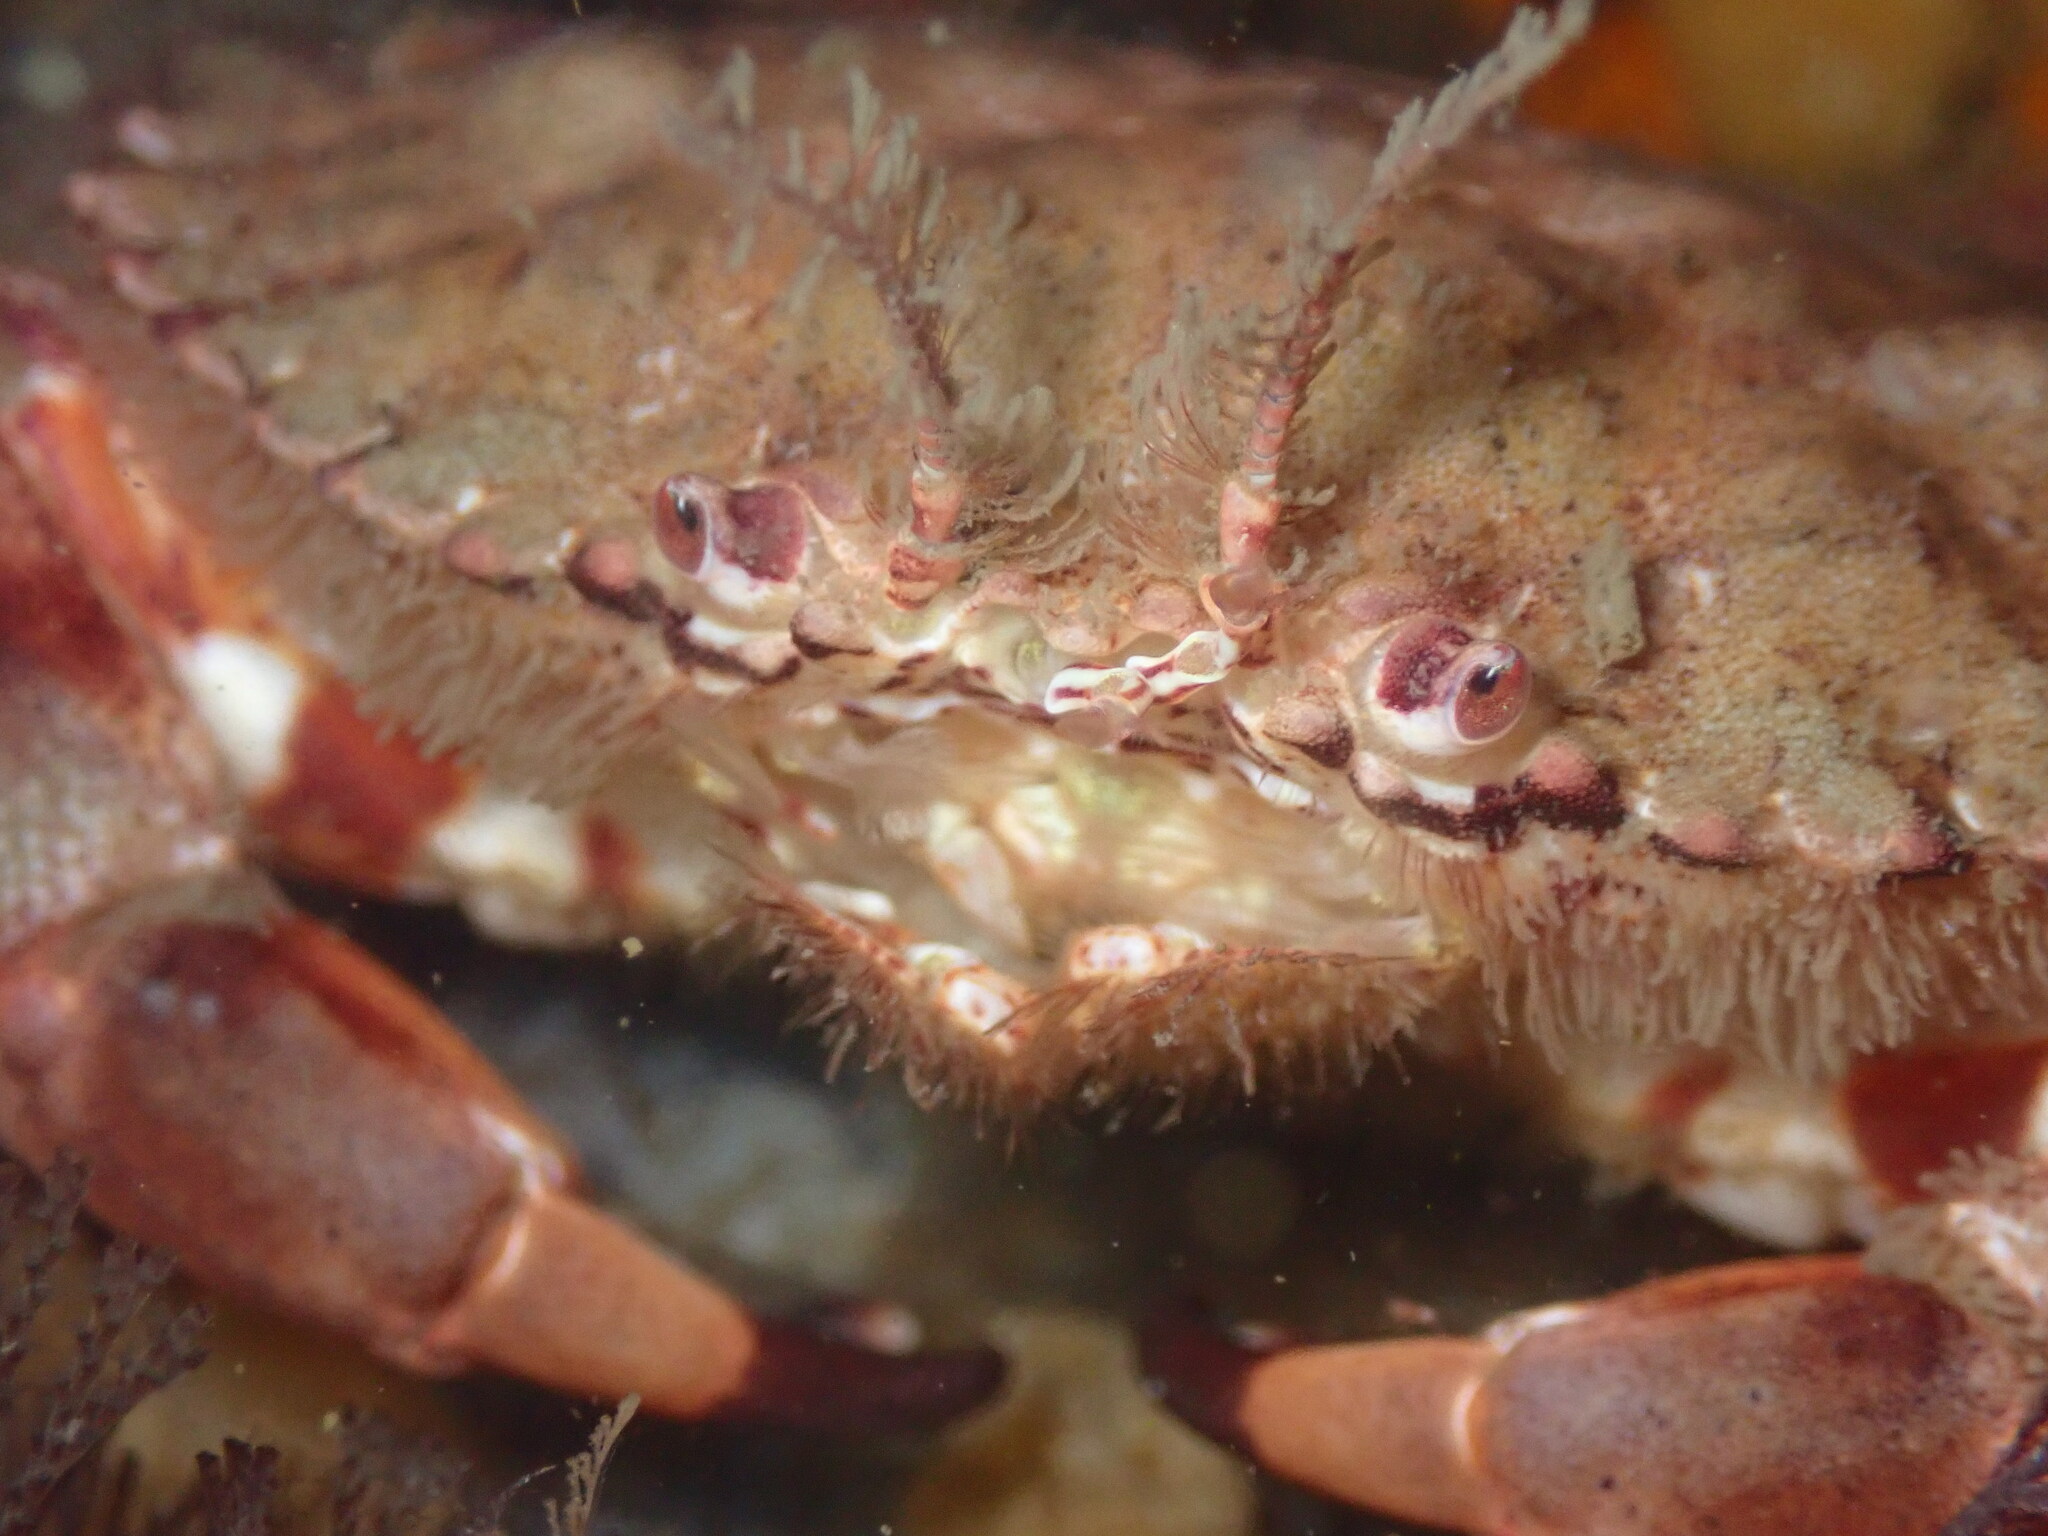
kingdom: Animalia
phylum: Arthropoda
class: Malacostraca
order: Decapoda
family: Cancridae
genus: Romaleon
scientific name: Romaleon antennarium
